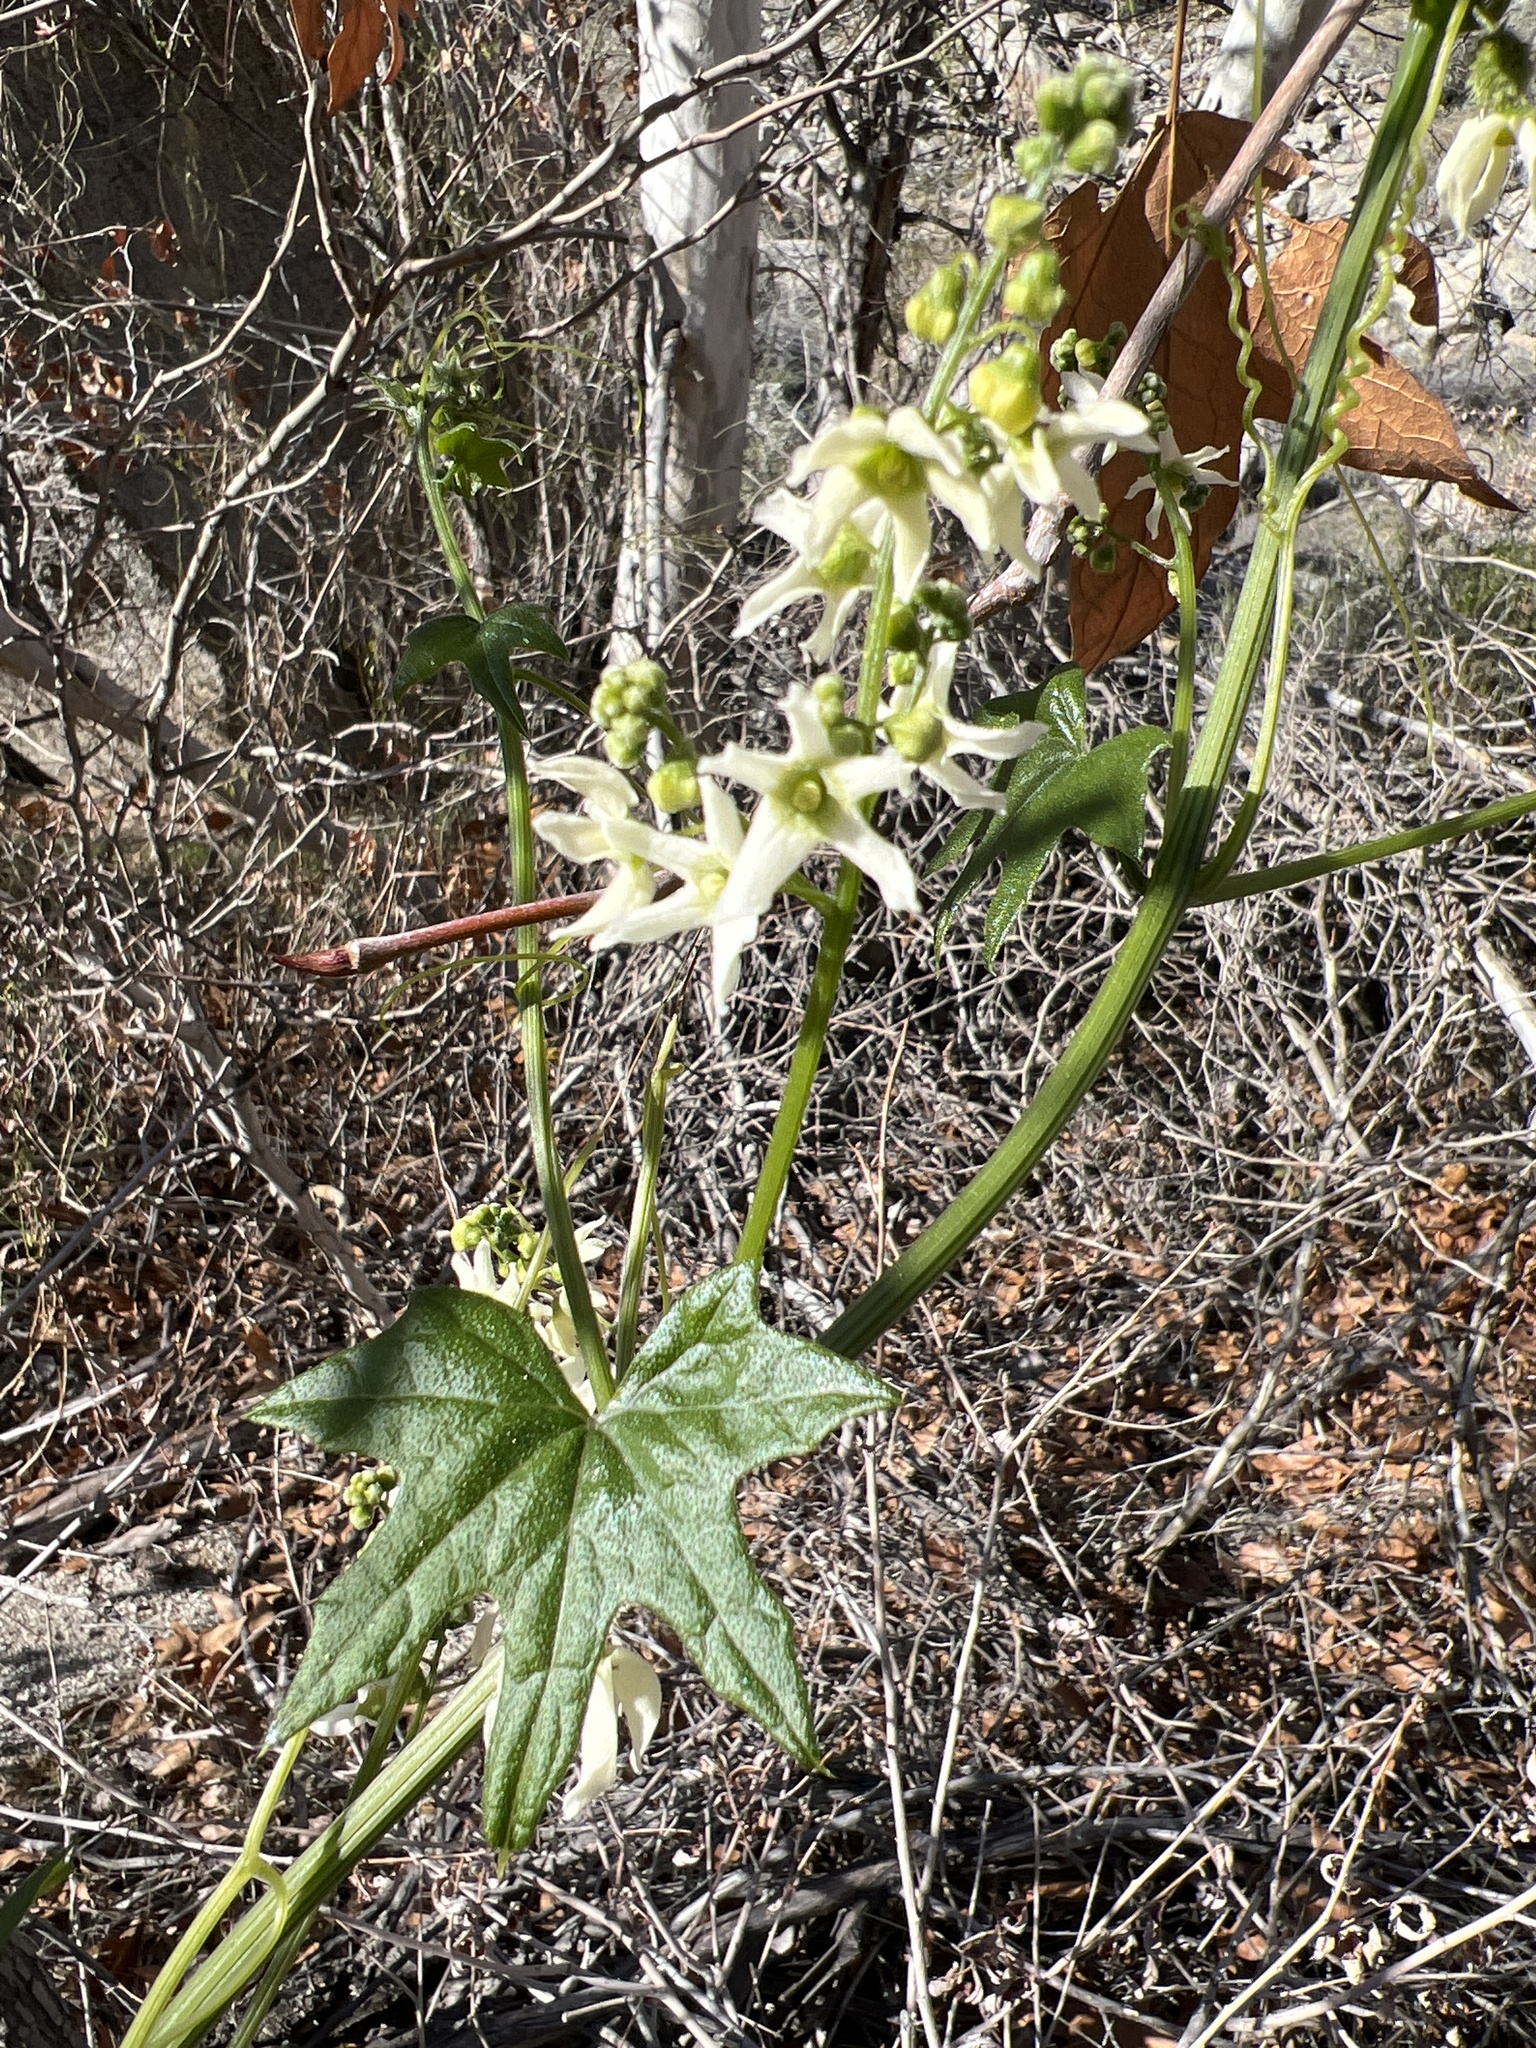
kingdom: Plantae
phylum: Tracheophyta
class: Magnoliopsida
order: Cucurbitales
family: Cucurbitaceae
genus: Marah
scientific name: Marah macrocarpa
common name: Cucamonga manroot
